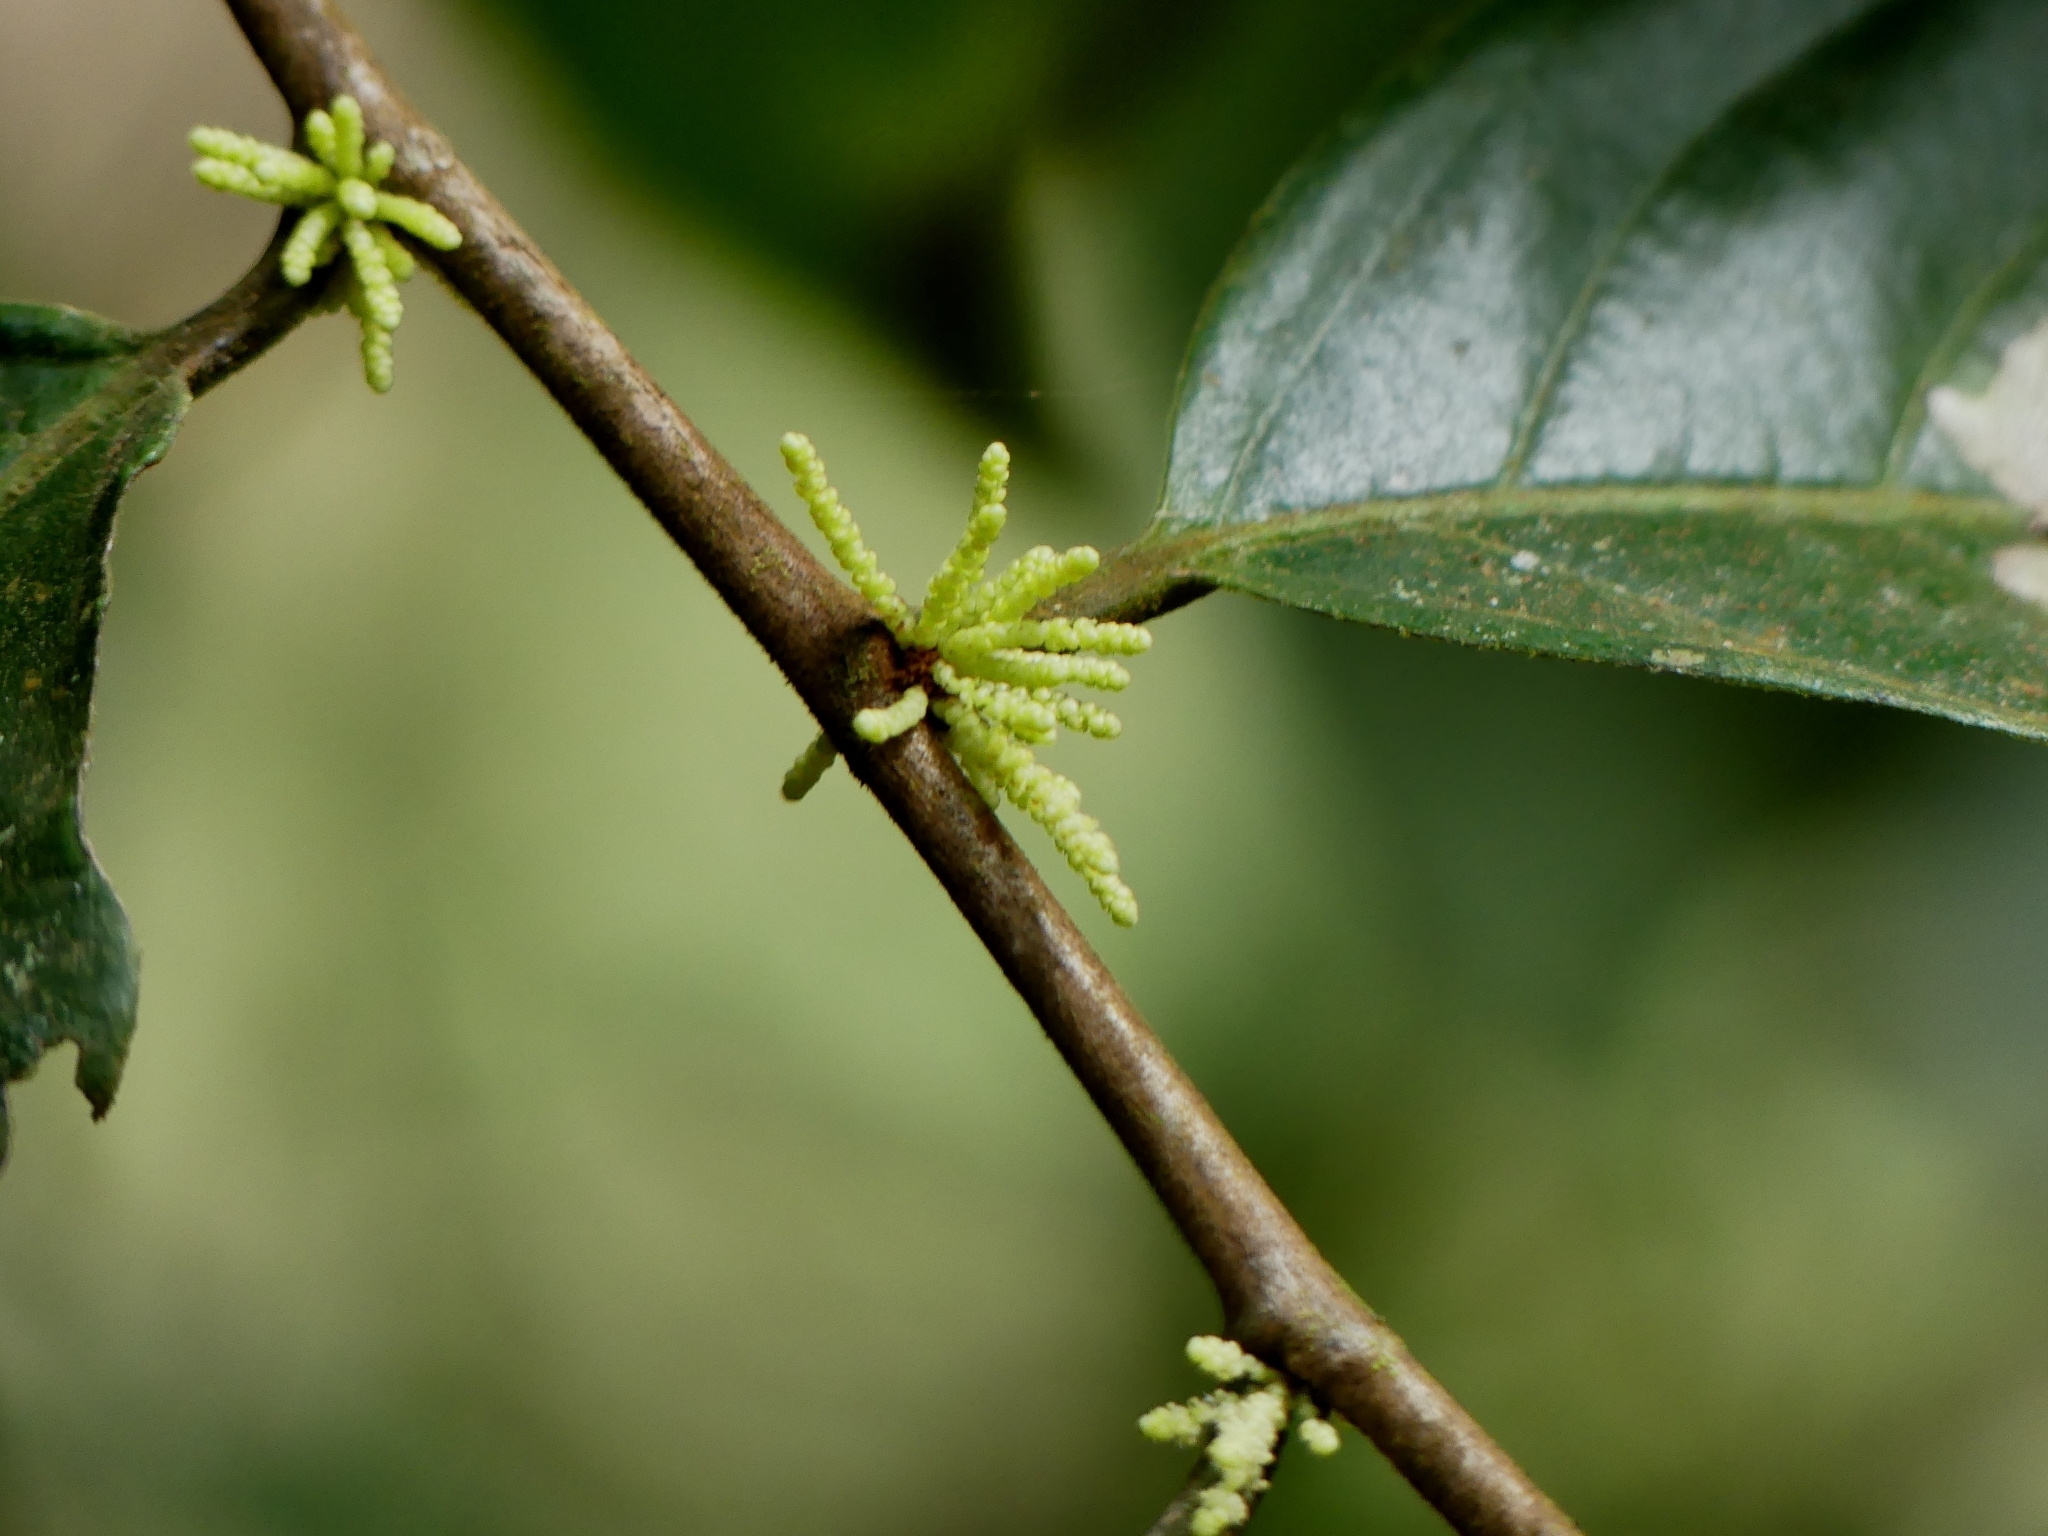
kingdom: Plantae
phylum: Tracheophyta
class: Magnoliopsida
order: Malpighiales
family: Lacistemataceae
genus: Lacistema
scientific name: Lacistema aggregatum
